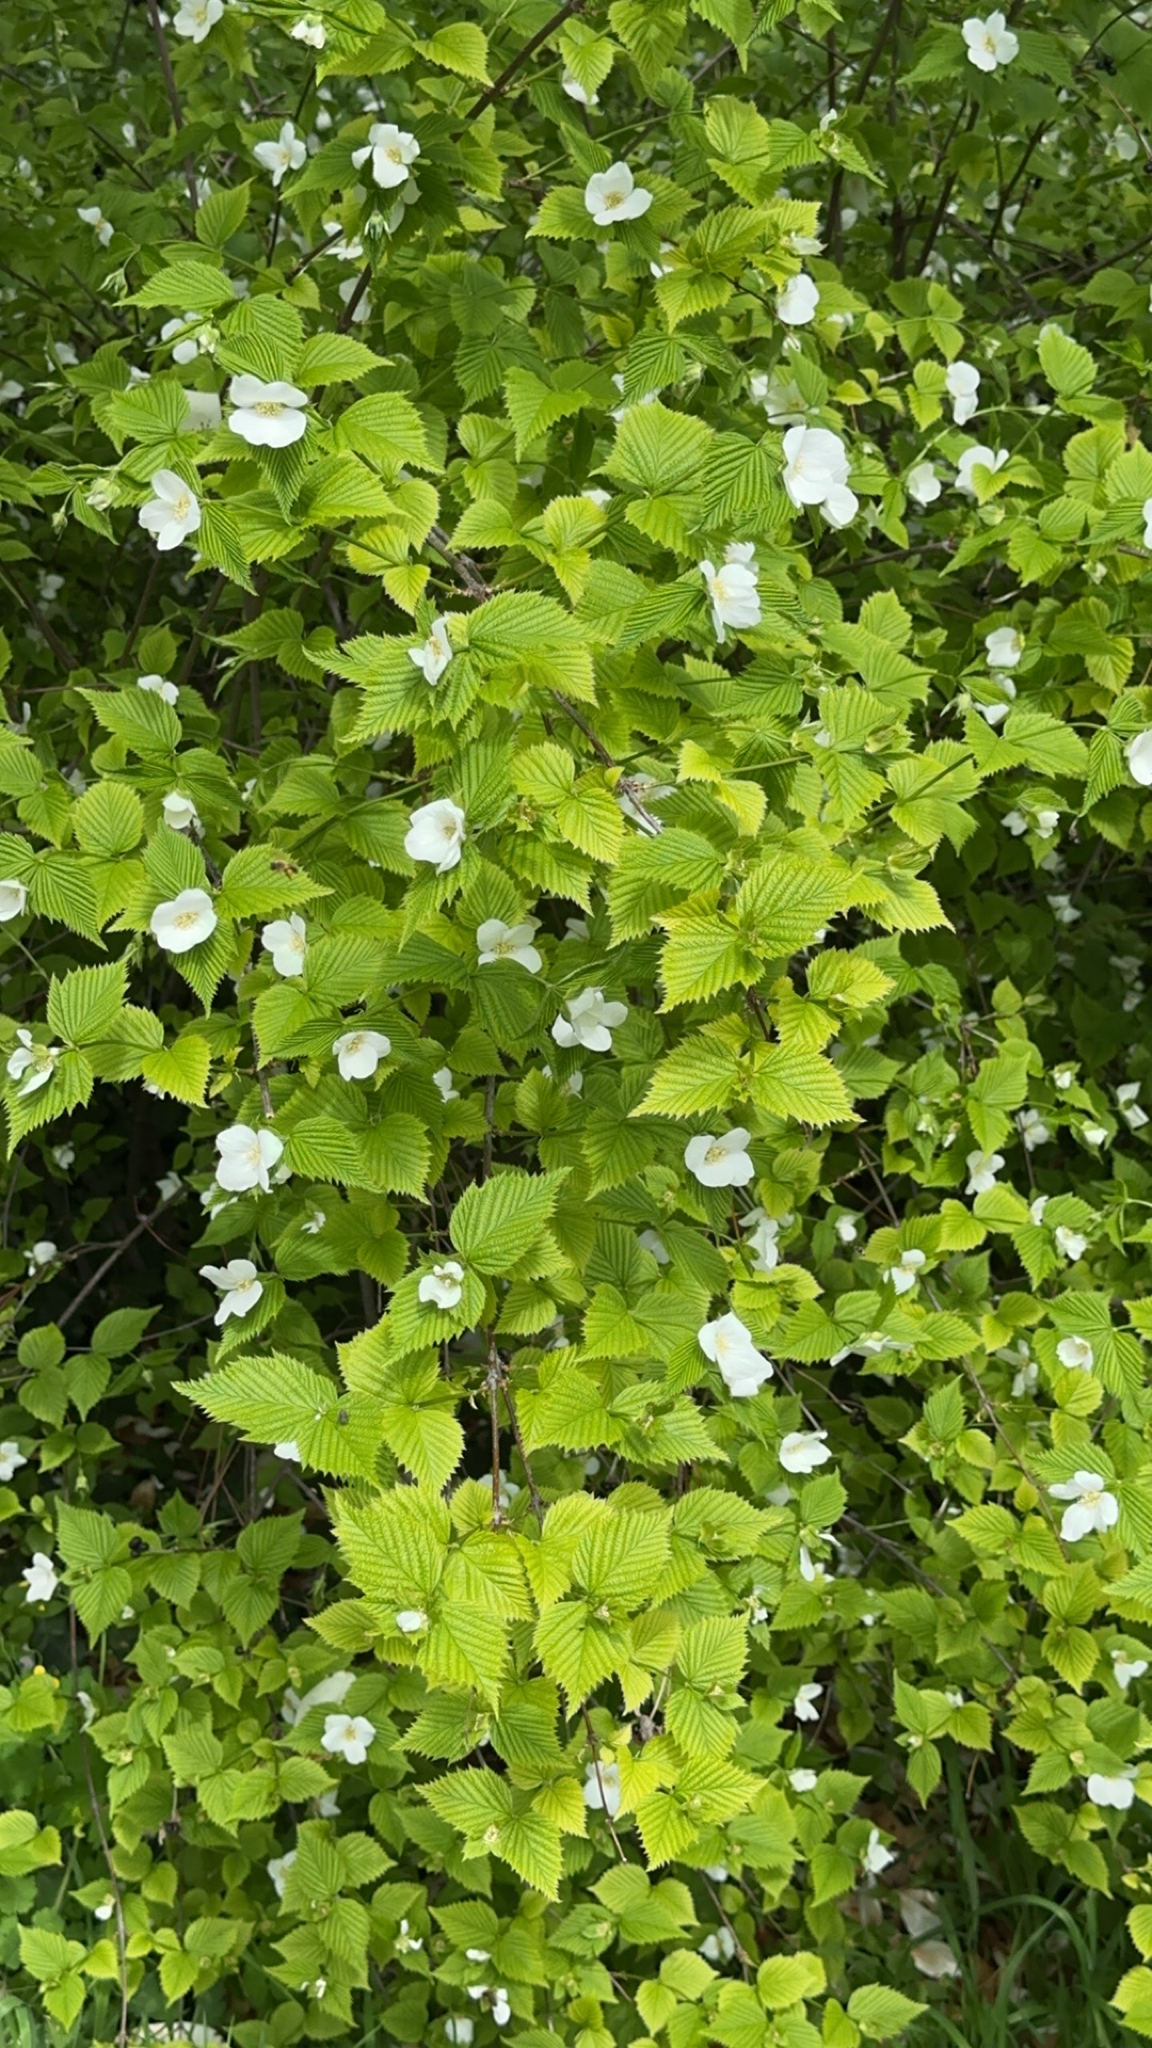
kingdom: Plantae
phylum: Tracheophyta
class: Magnoliopsida
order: Rosales
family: Rosaceae
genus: Rhodotypos
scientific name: Rhodotypos scandens
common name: Jetbead
